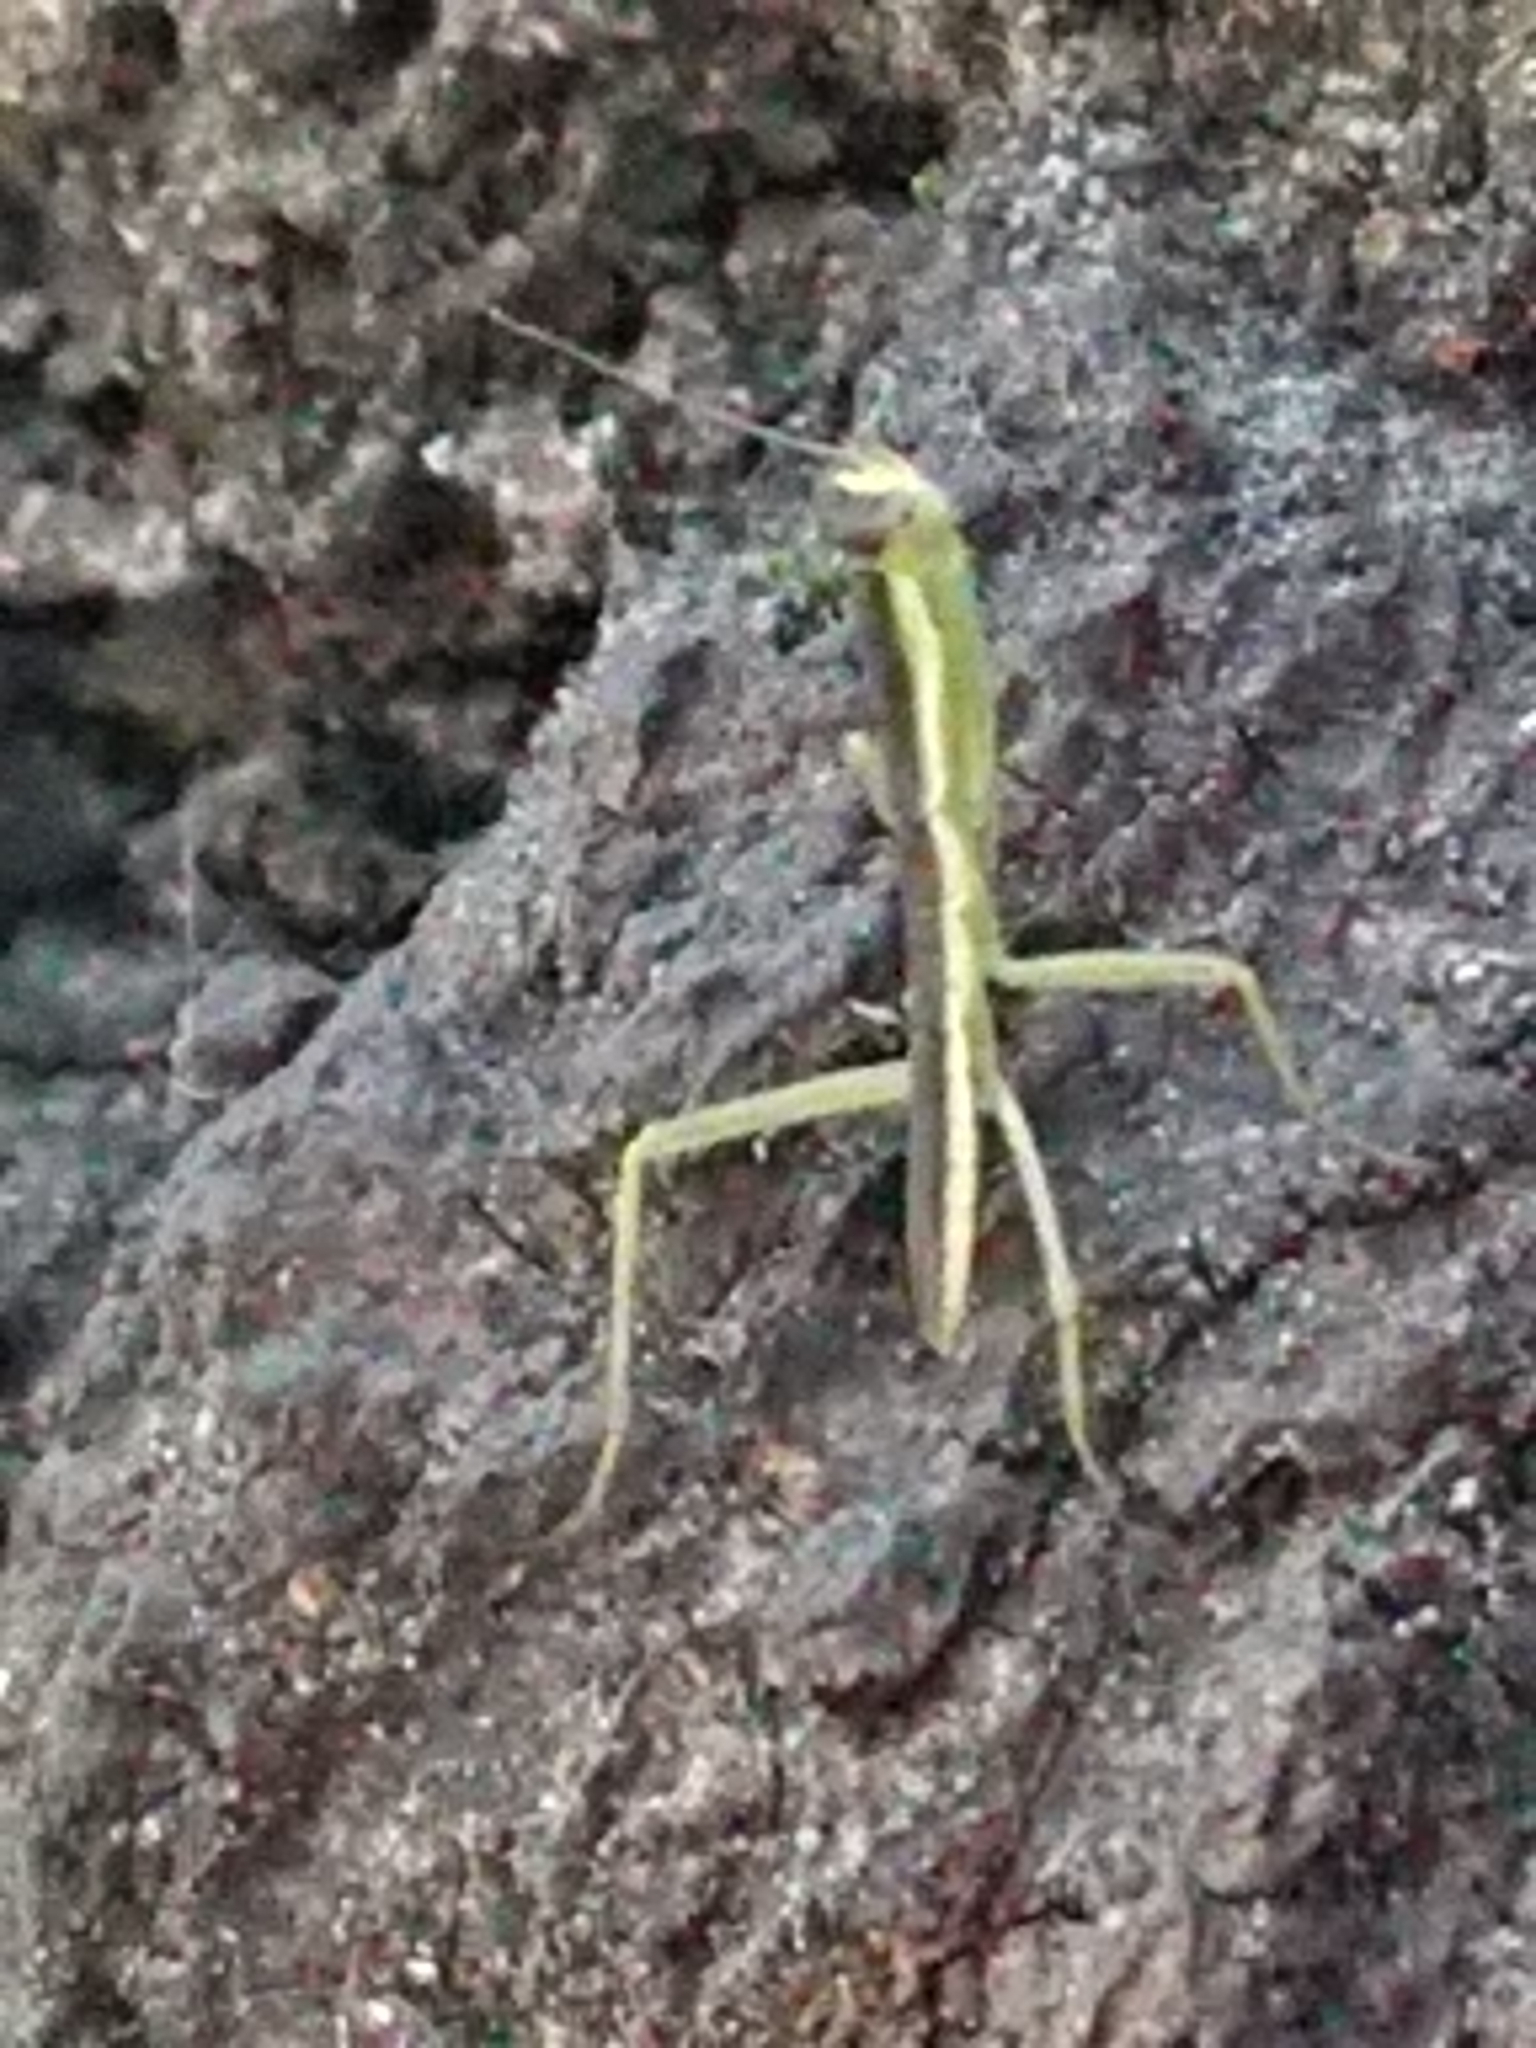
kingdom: Animalia
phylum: Arthropoda
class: Insecta
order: Mantodea
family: Mantidae
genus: Orthodera
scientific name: Orthodera novaezealandiae
